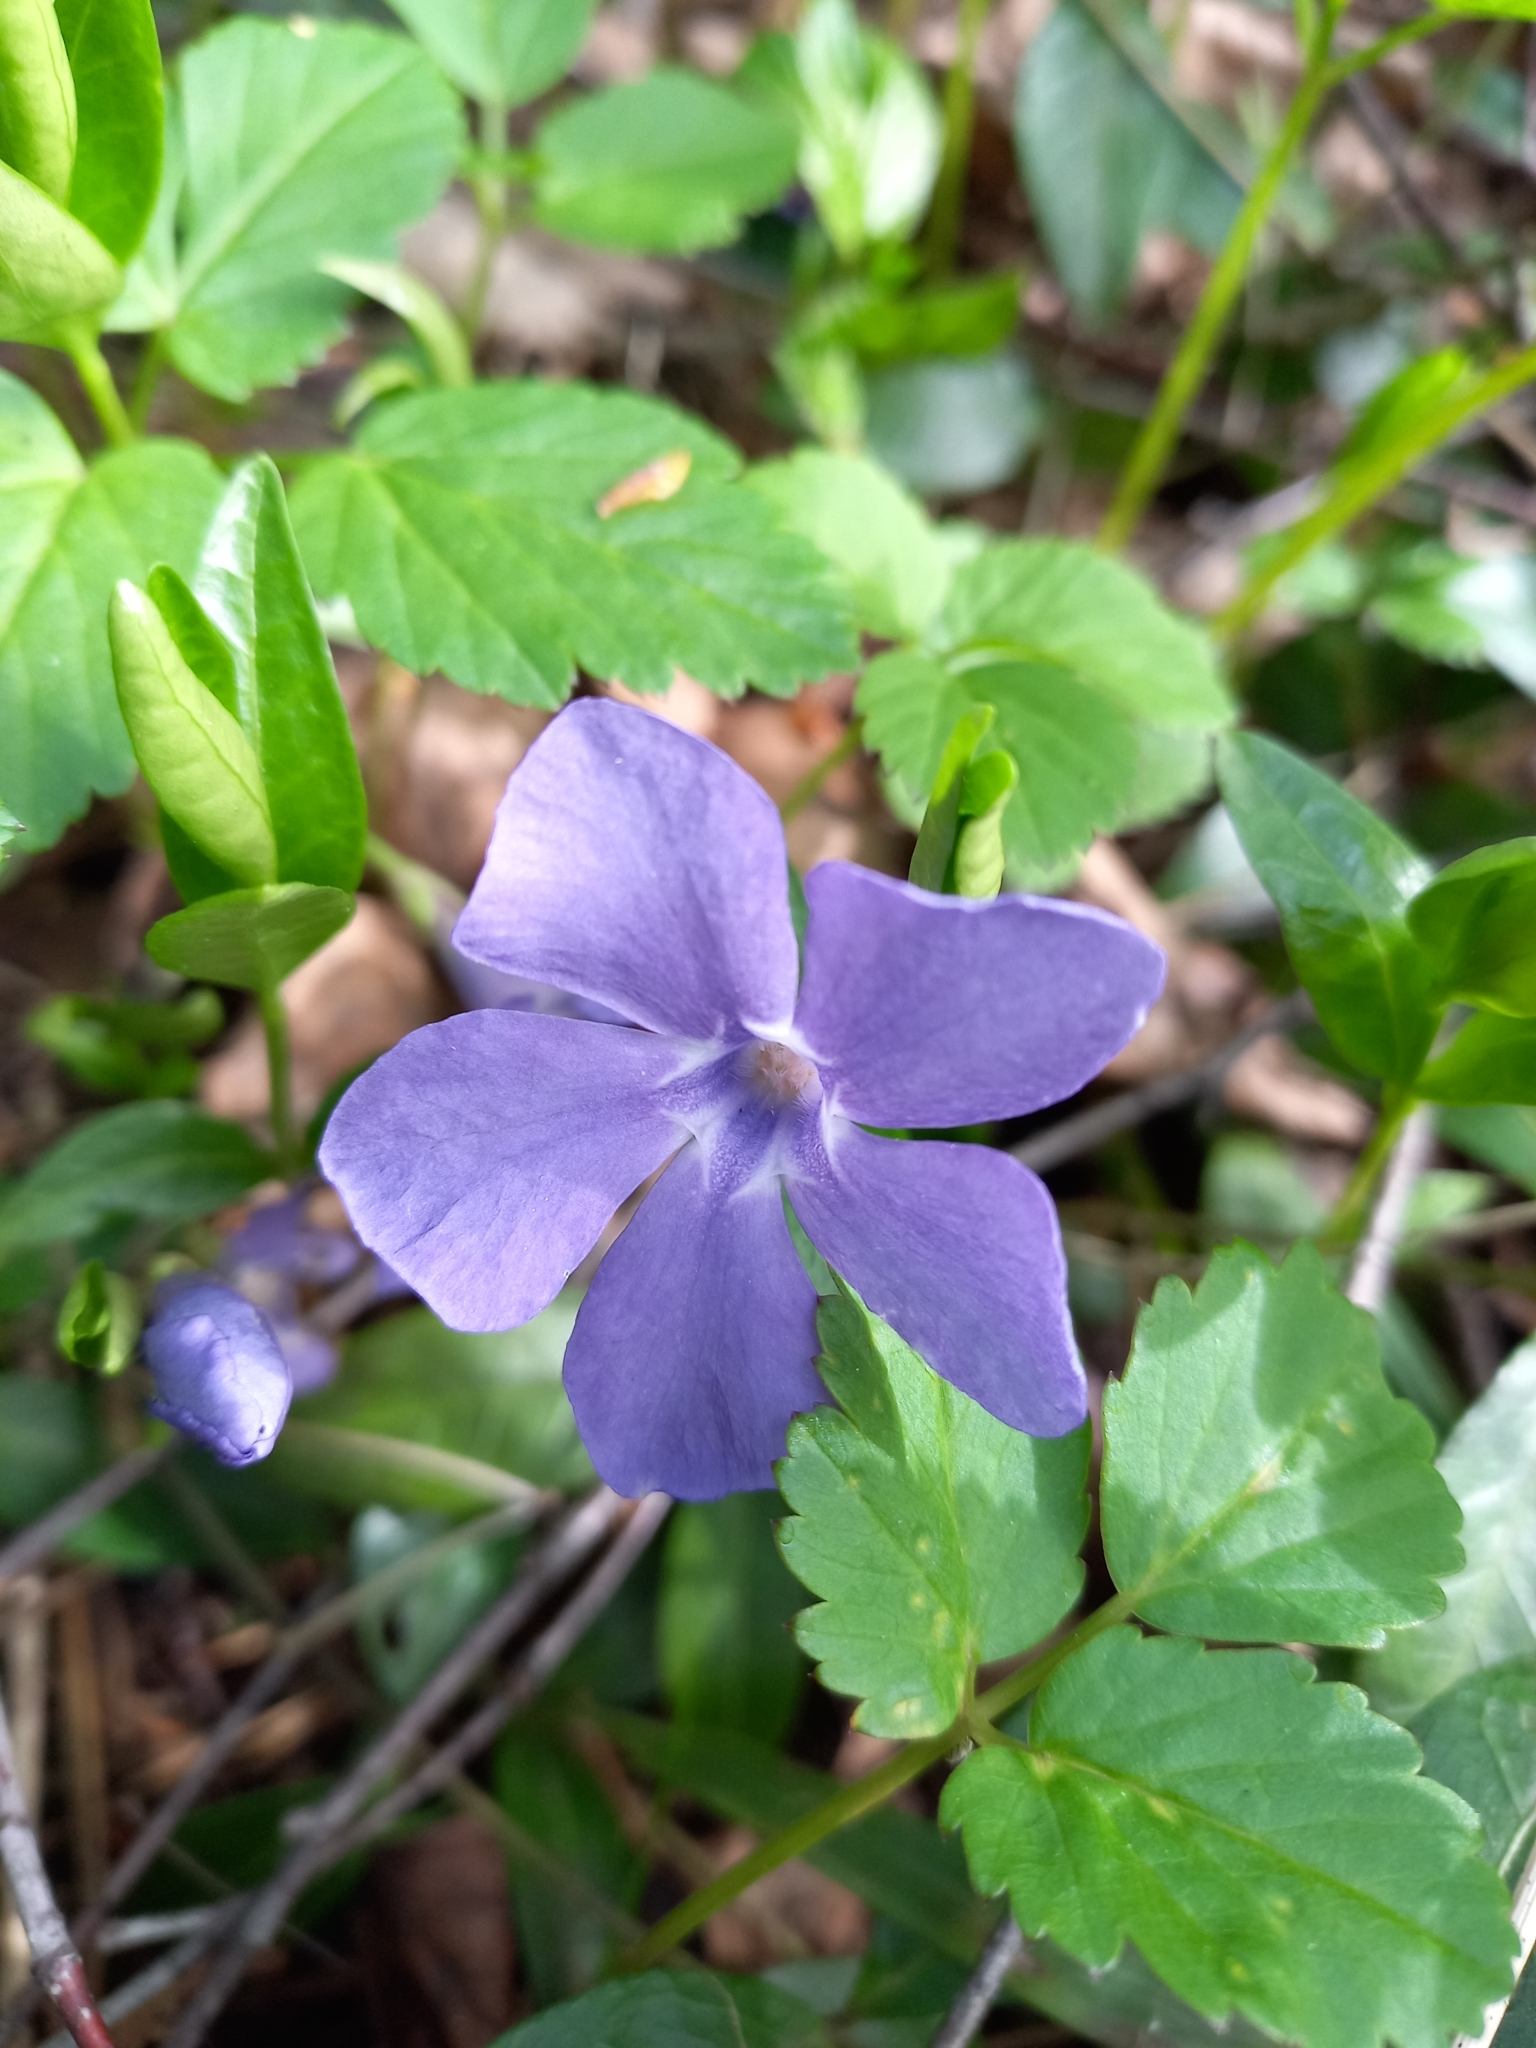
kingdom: Plantae
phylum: Tracheophyta
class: Magnoliopsida
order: Gentianales
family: Apocynaceae
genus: Vinca
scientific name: Vinca minor
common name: Lesser periwinkle
